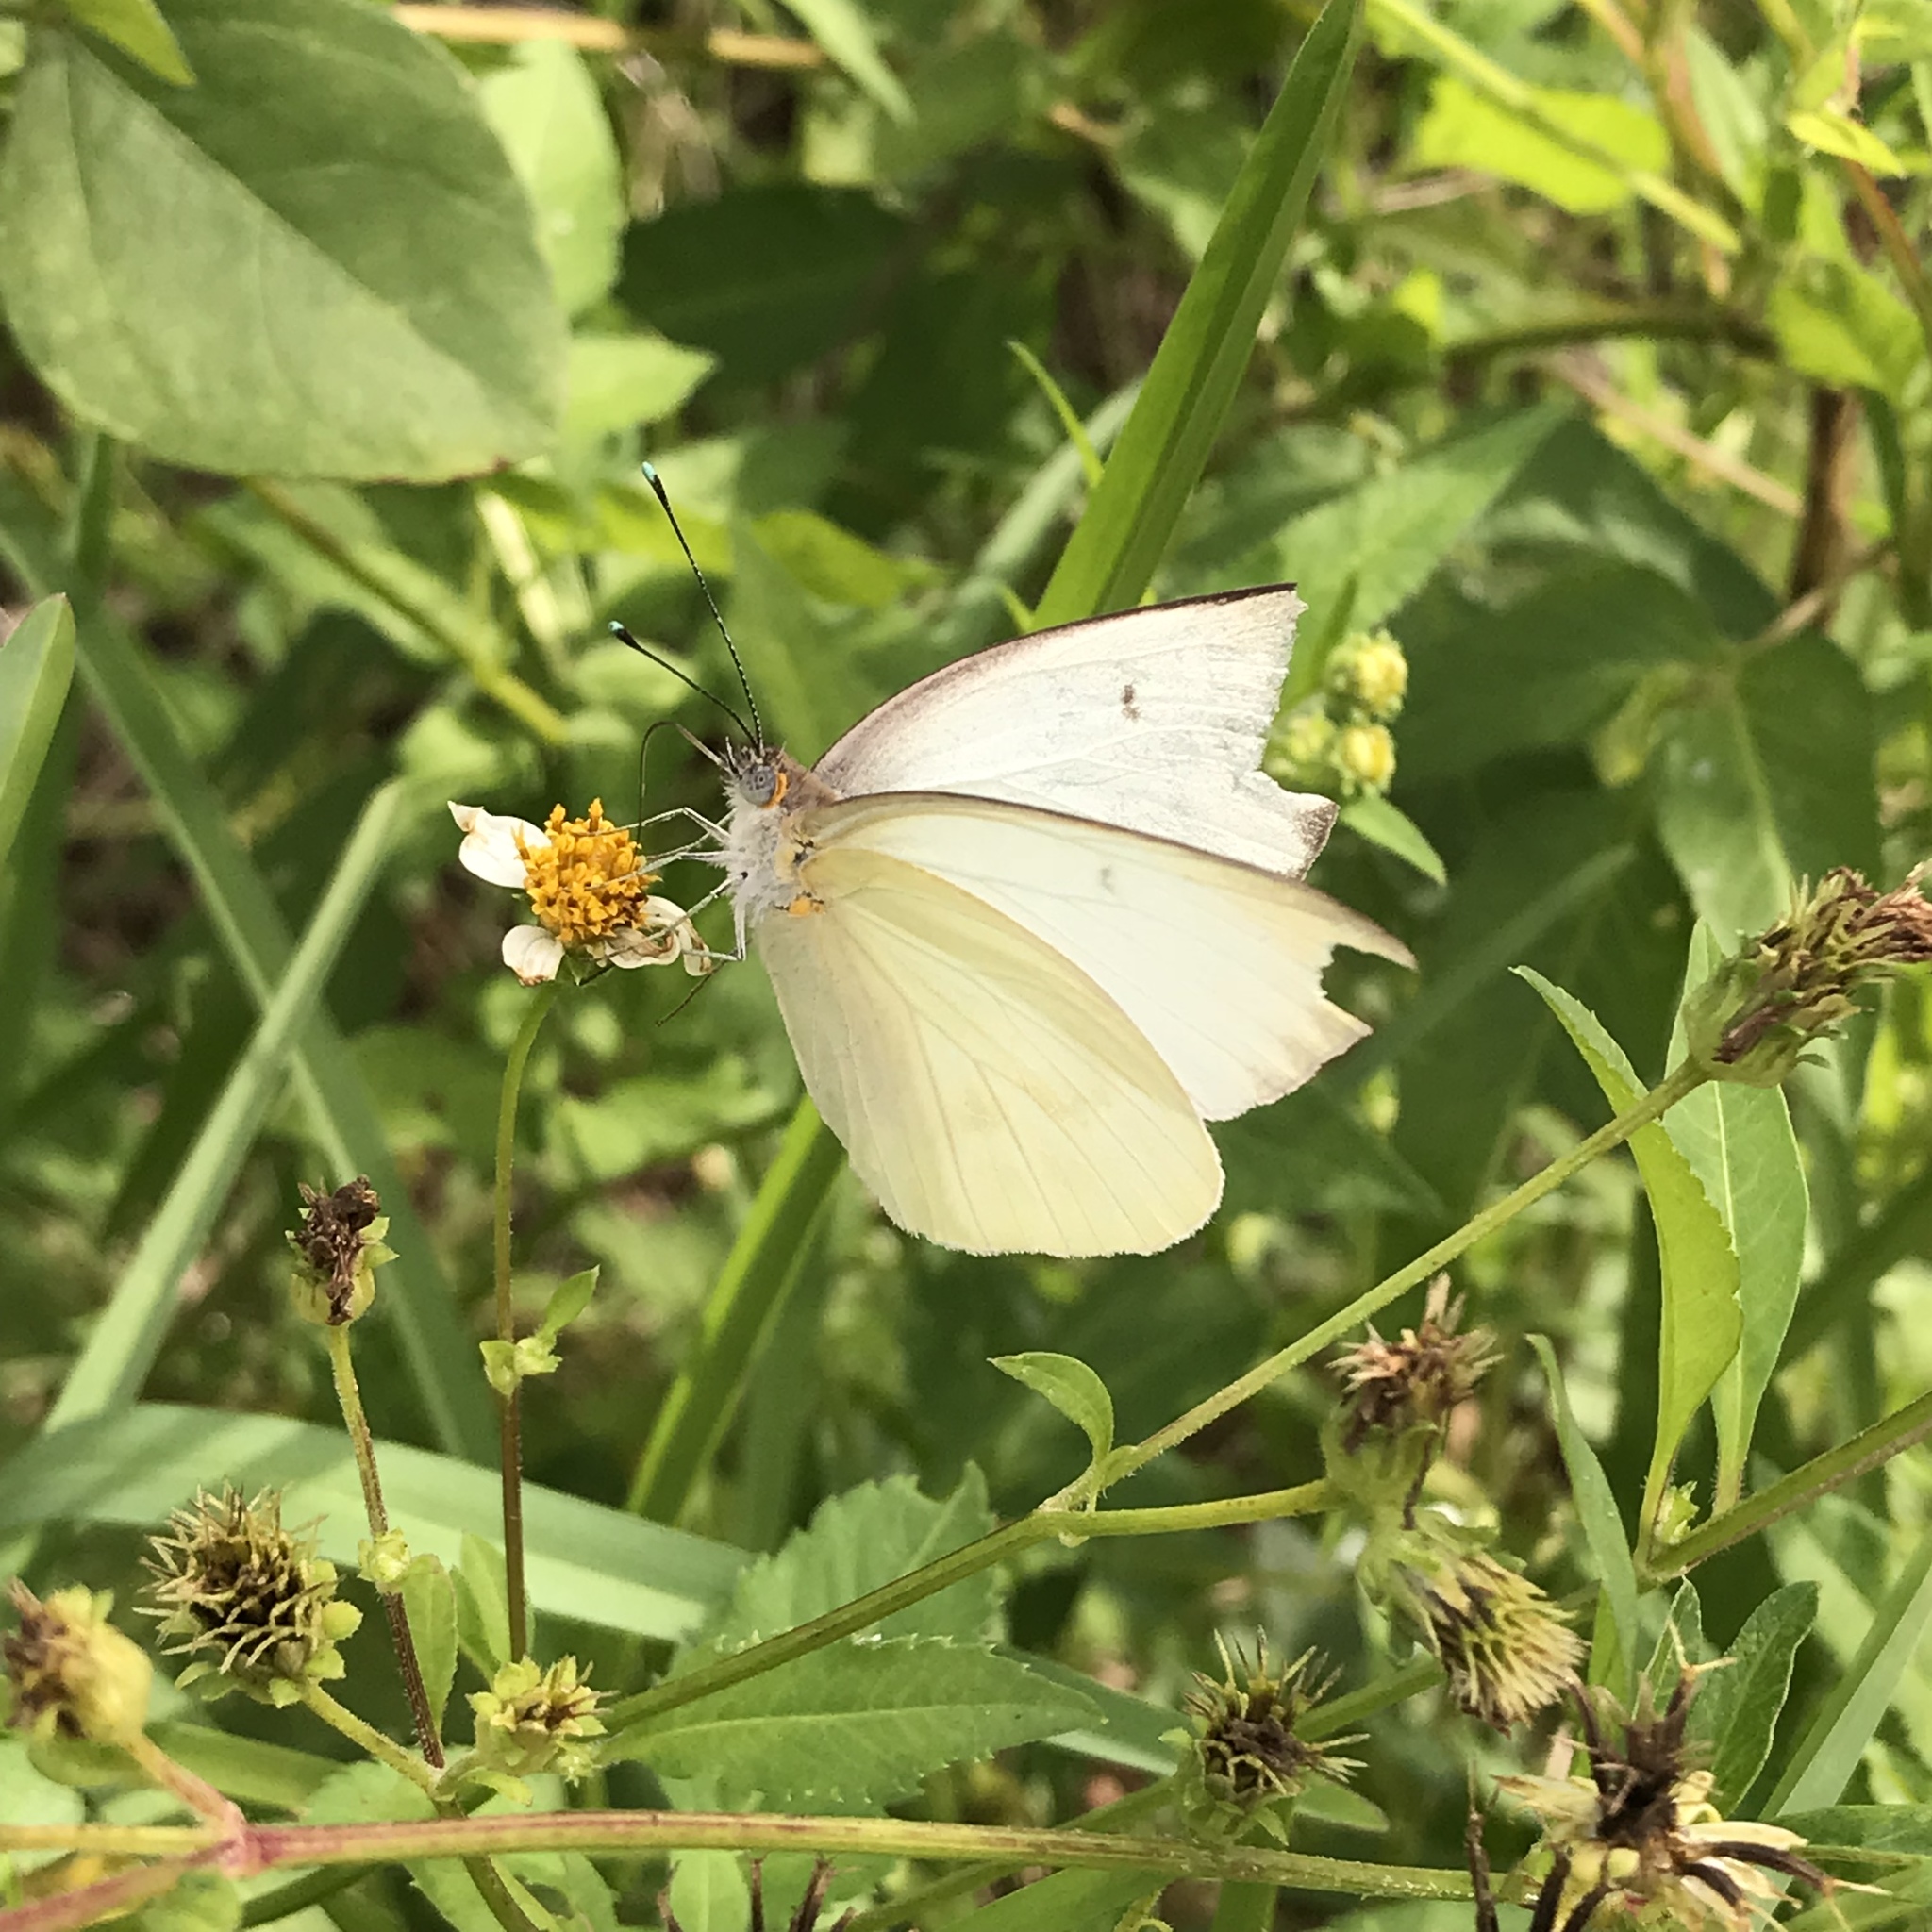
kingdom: Animalia
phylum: Arthropoda
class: Insecta
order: Lepidoptera
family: Pieridae
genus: Ascia
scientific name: Ascia monuste
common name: Great southern white
